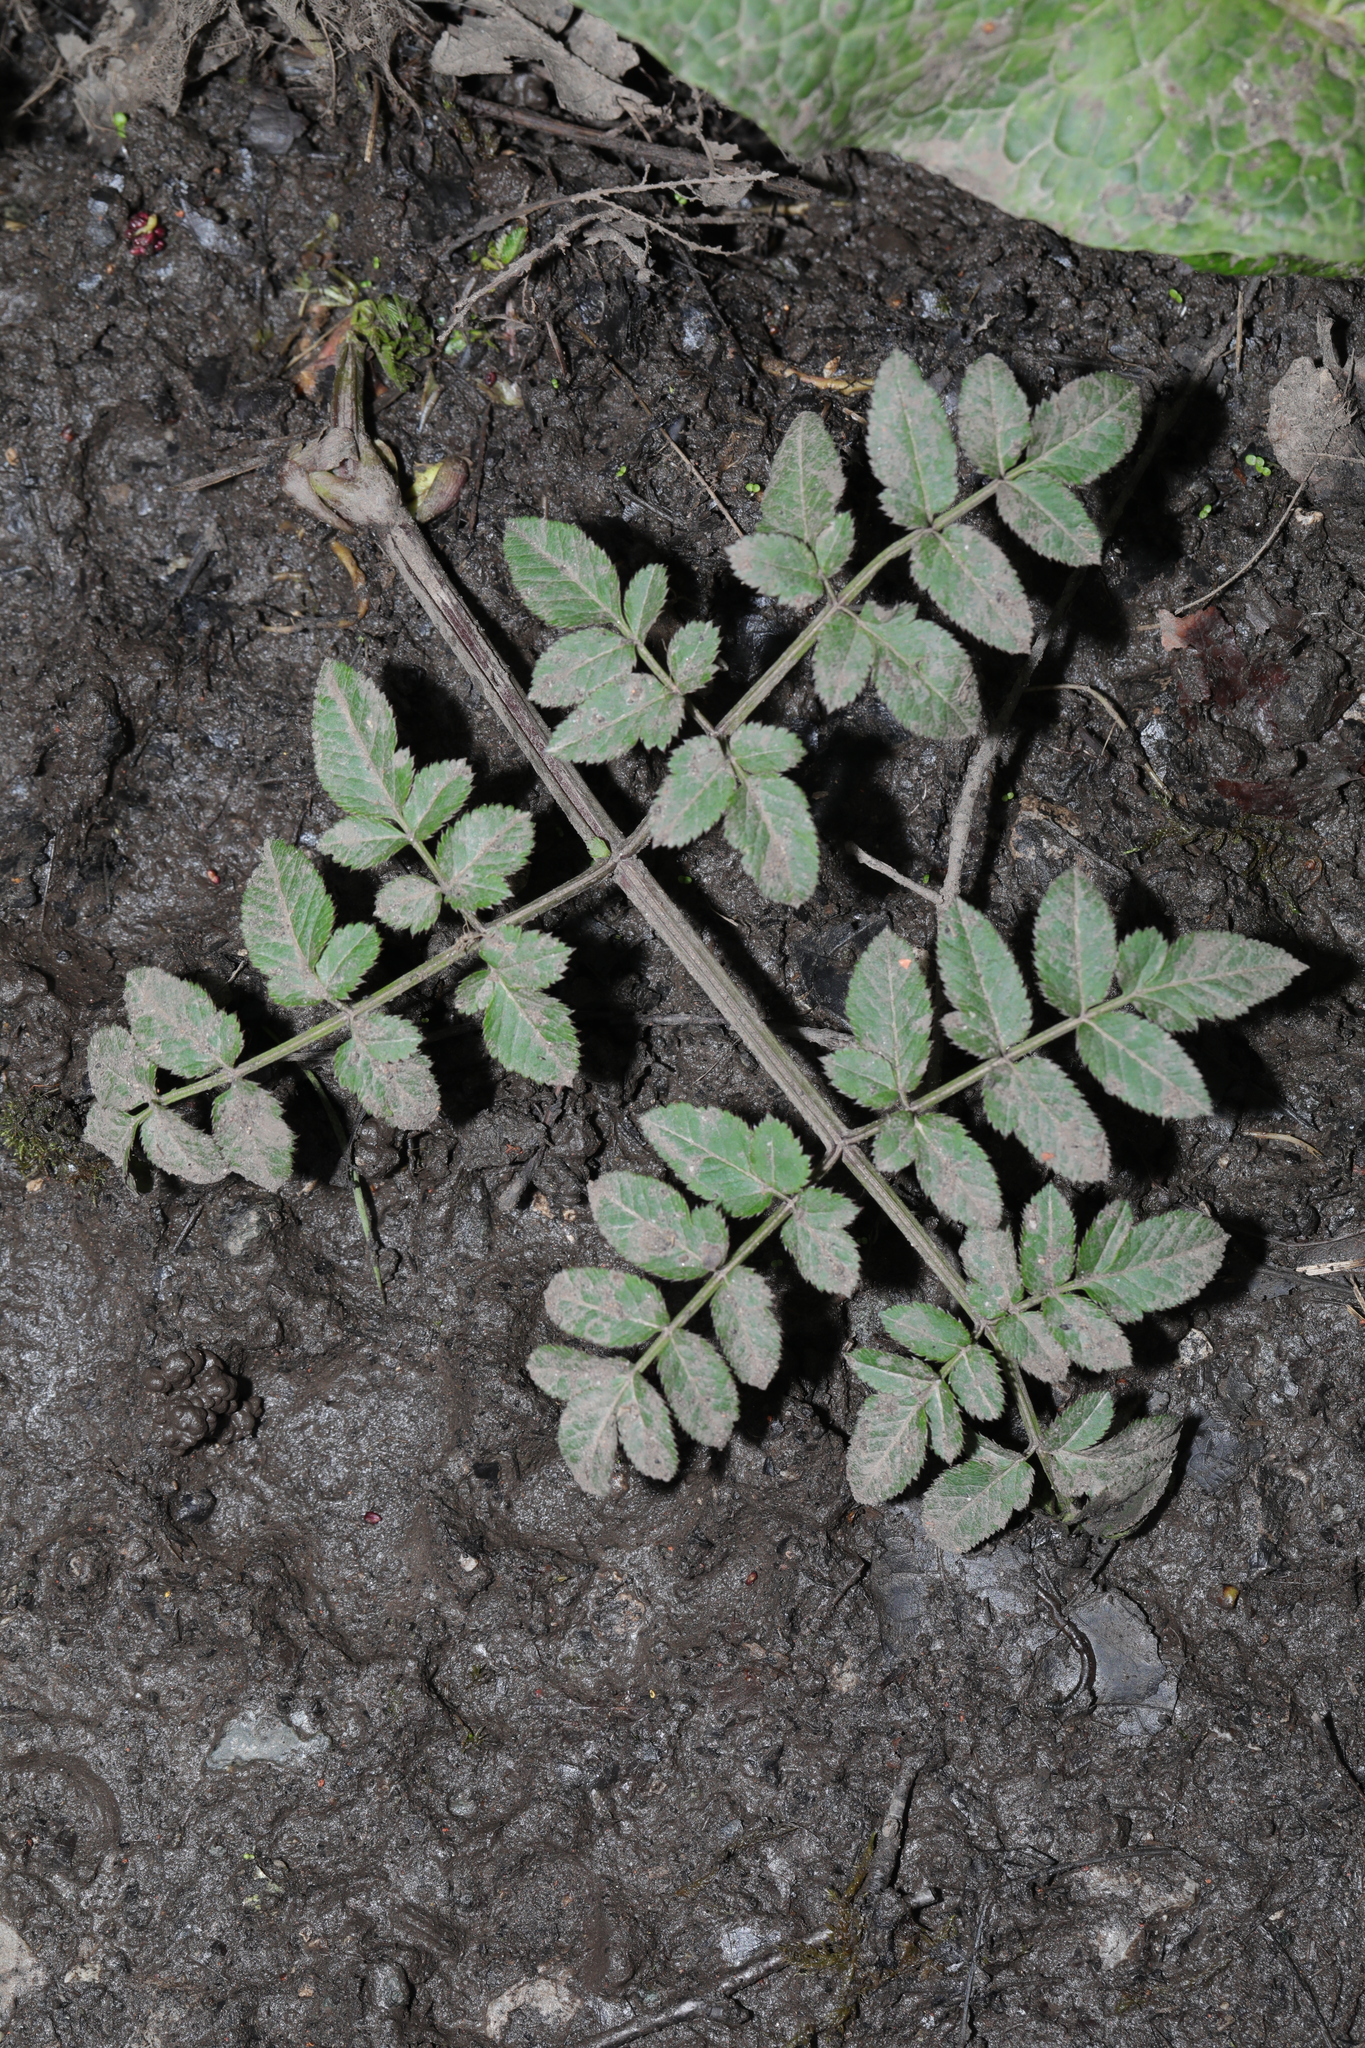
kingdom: Plantae
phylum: Tracheophyta
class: Magnoliopsida
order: Apiales
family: Apiaceae
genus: Angelica
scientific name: Angelica sylvestris
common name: Wild angelica
